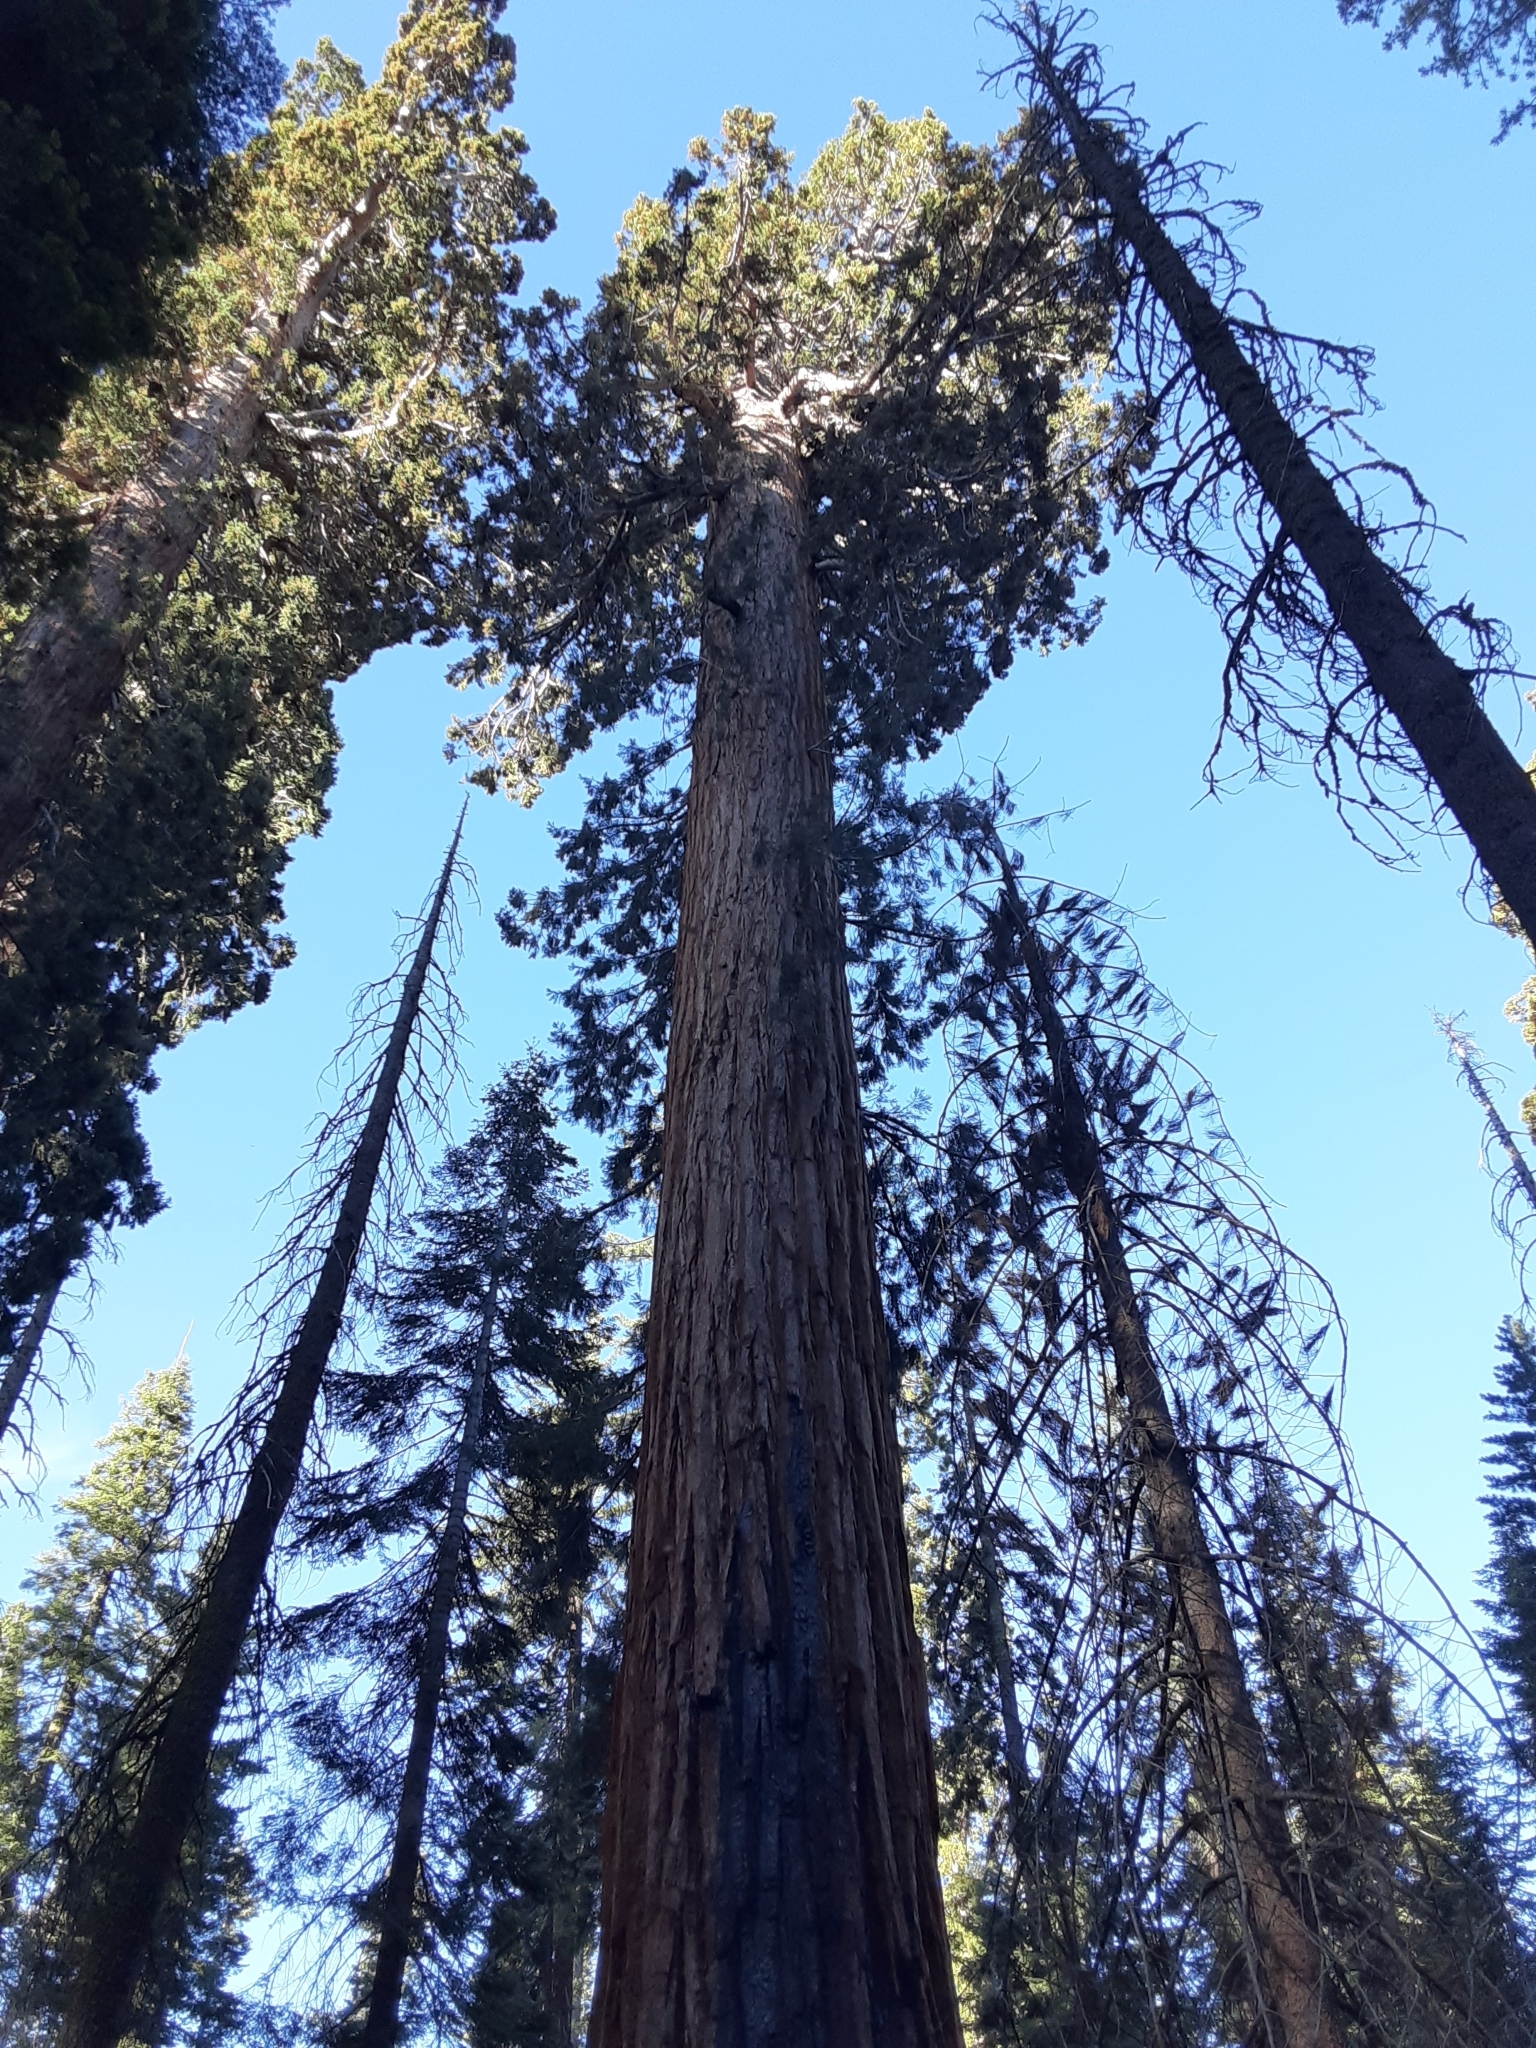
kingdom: Plantae
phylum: Tracheophyta
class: Pinopsida
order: Pinales
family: Cupressaceae
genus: Sequoiadendron
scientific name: Sequoiadendron giganteum
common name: Wellingtonia
